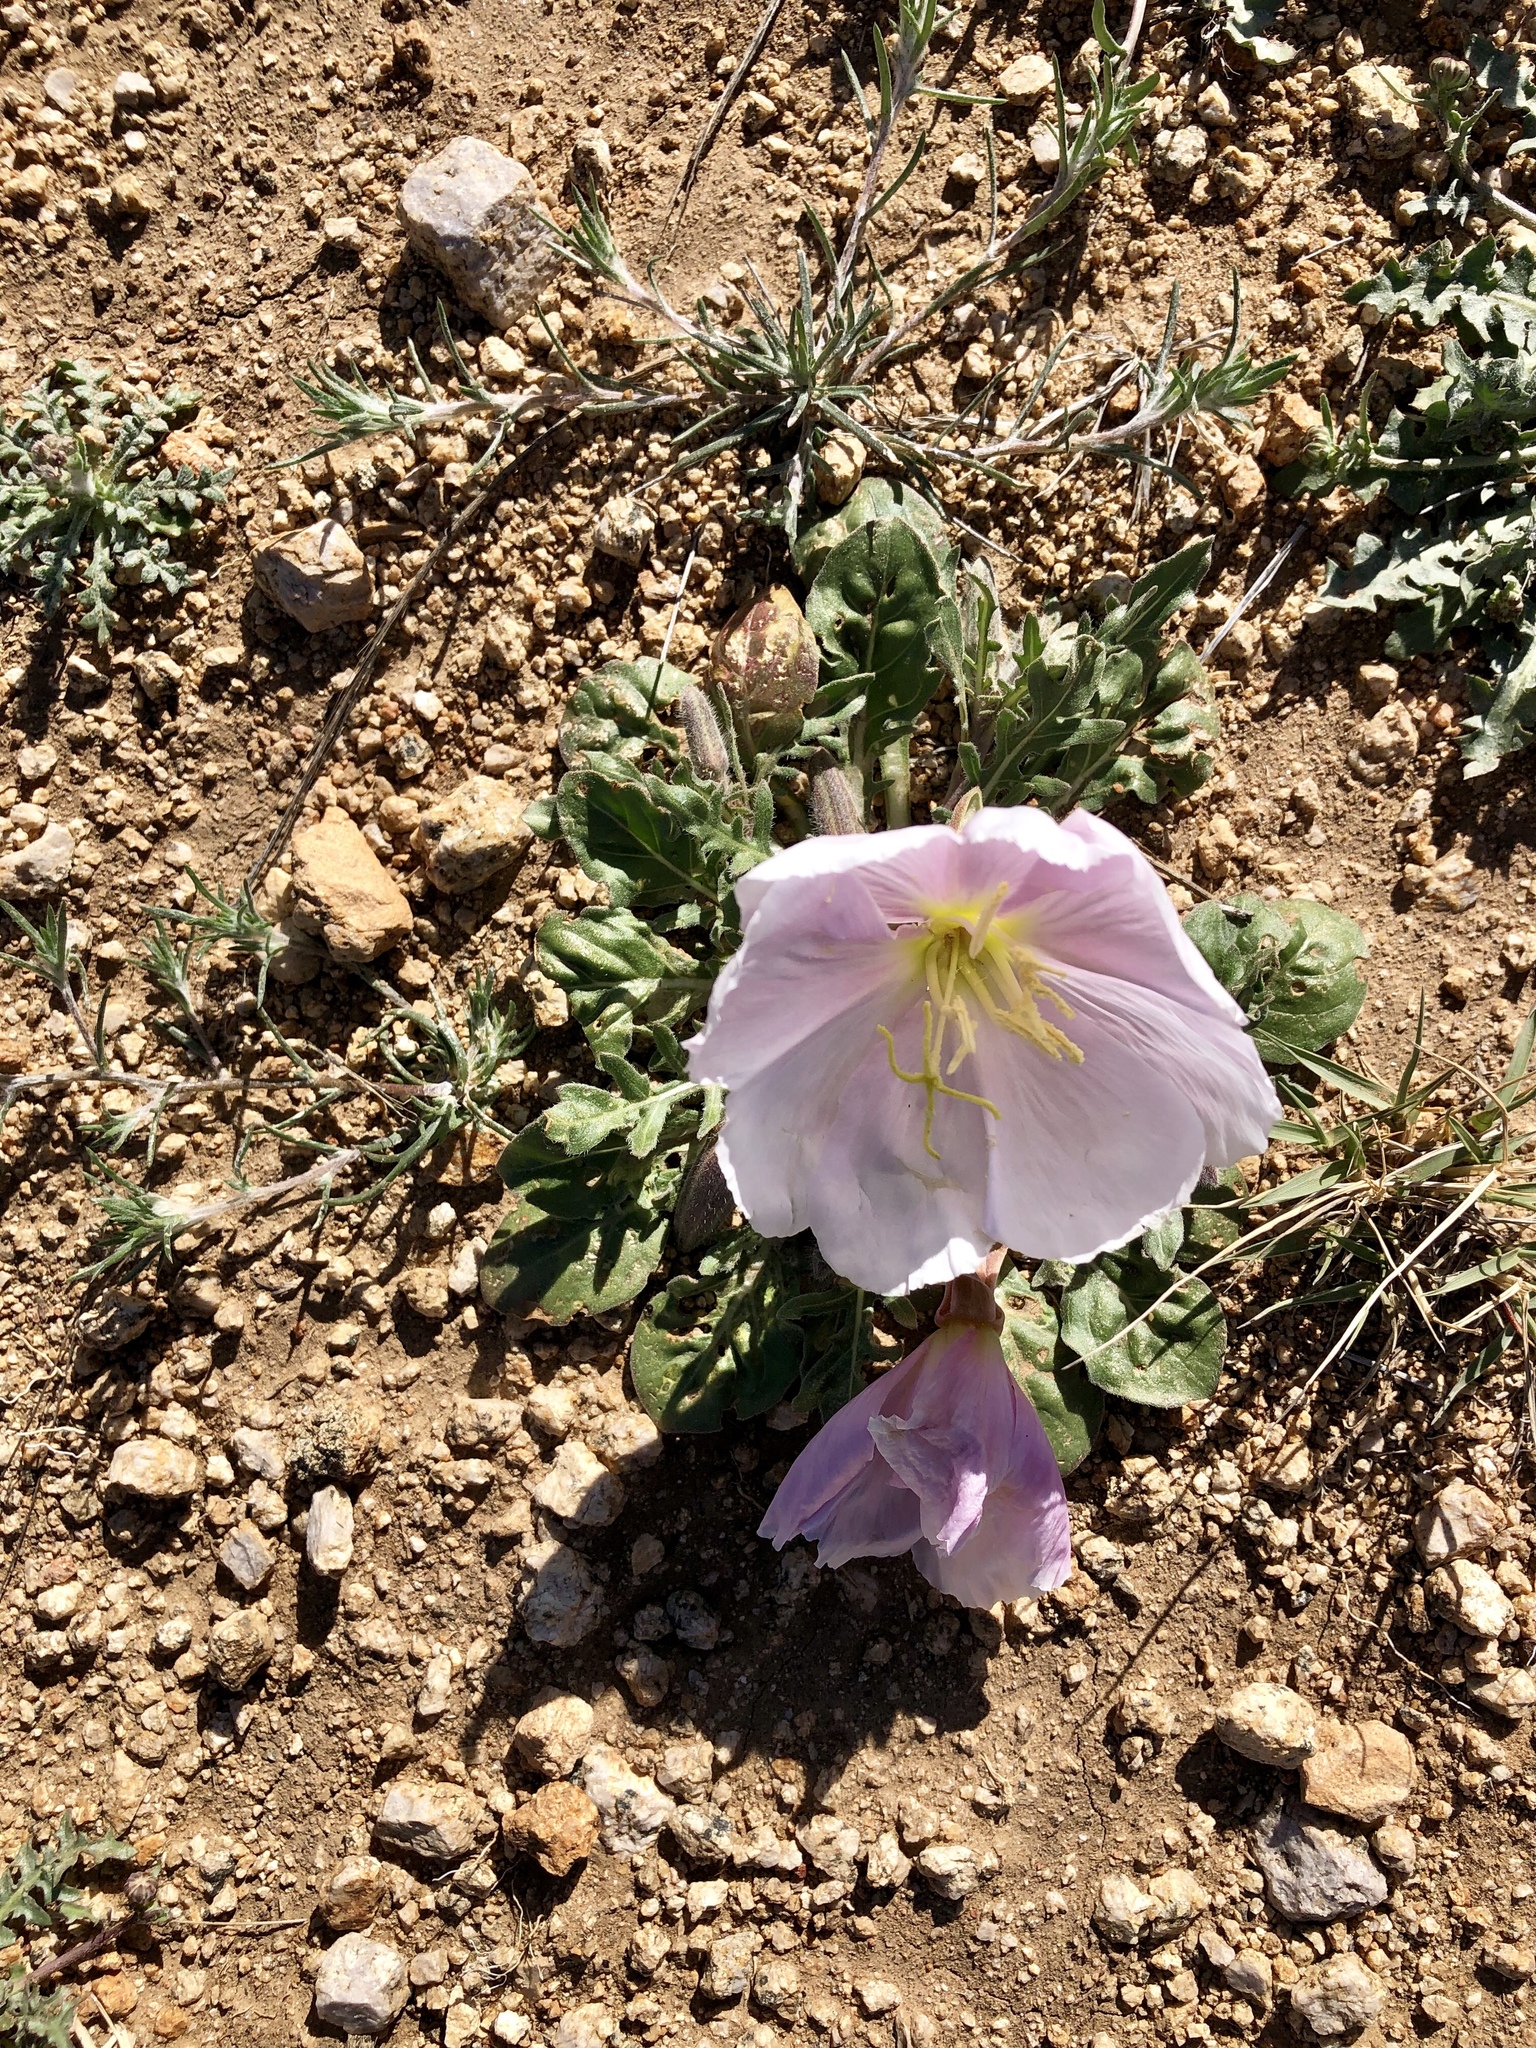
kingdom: Plantae
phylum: Tracheophyta
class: Magnoliopsida
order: Myrtales
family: Onagraceae
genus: Oenothera
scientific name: Oenothera albicaulis
